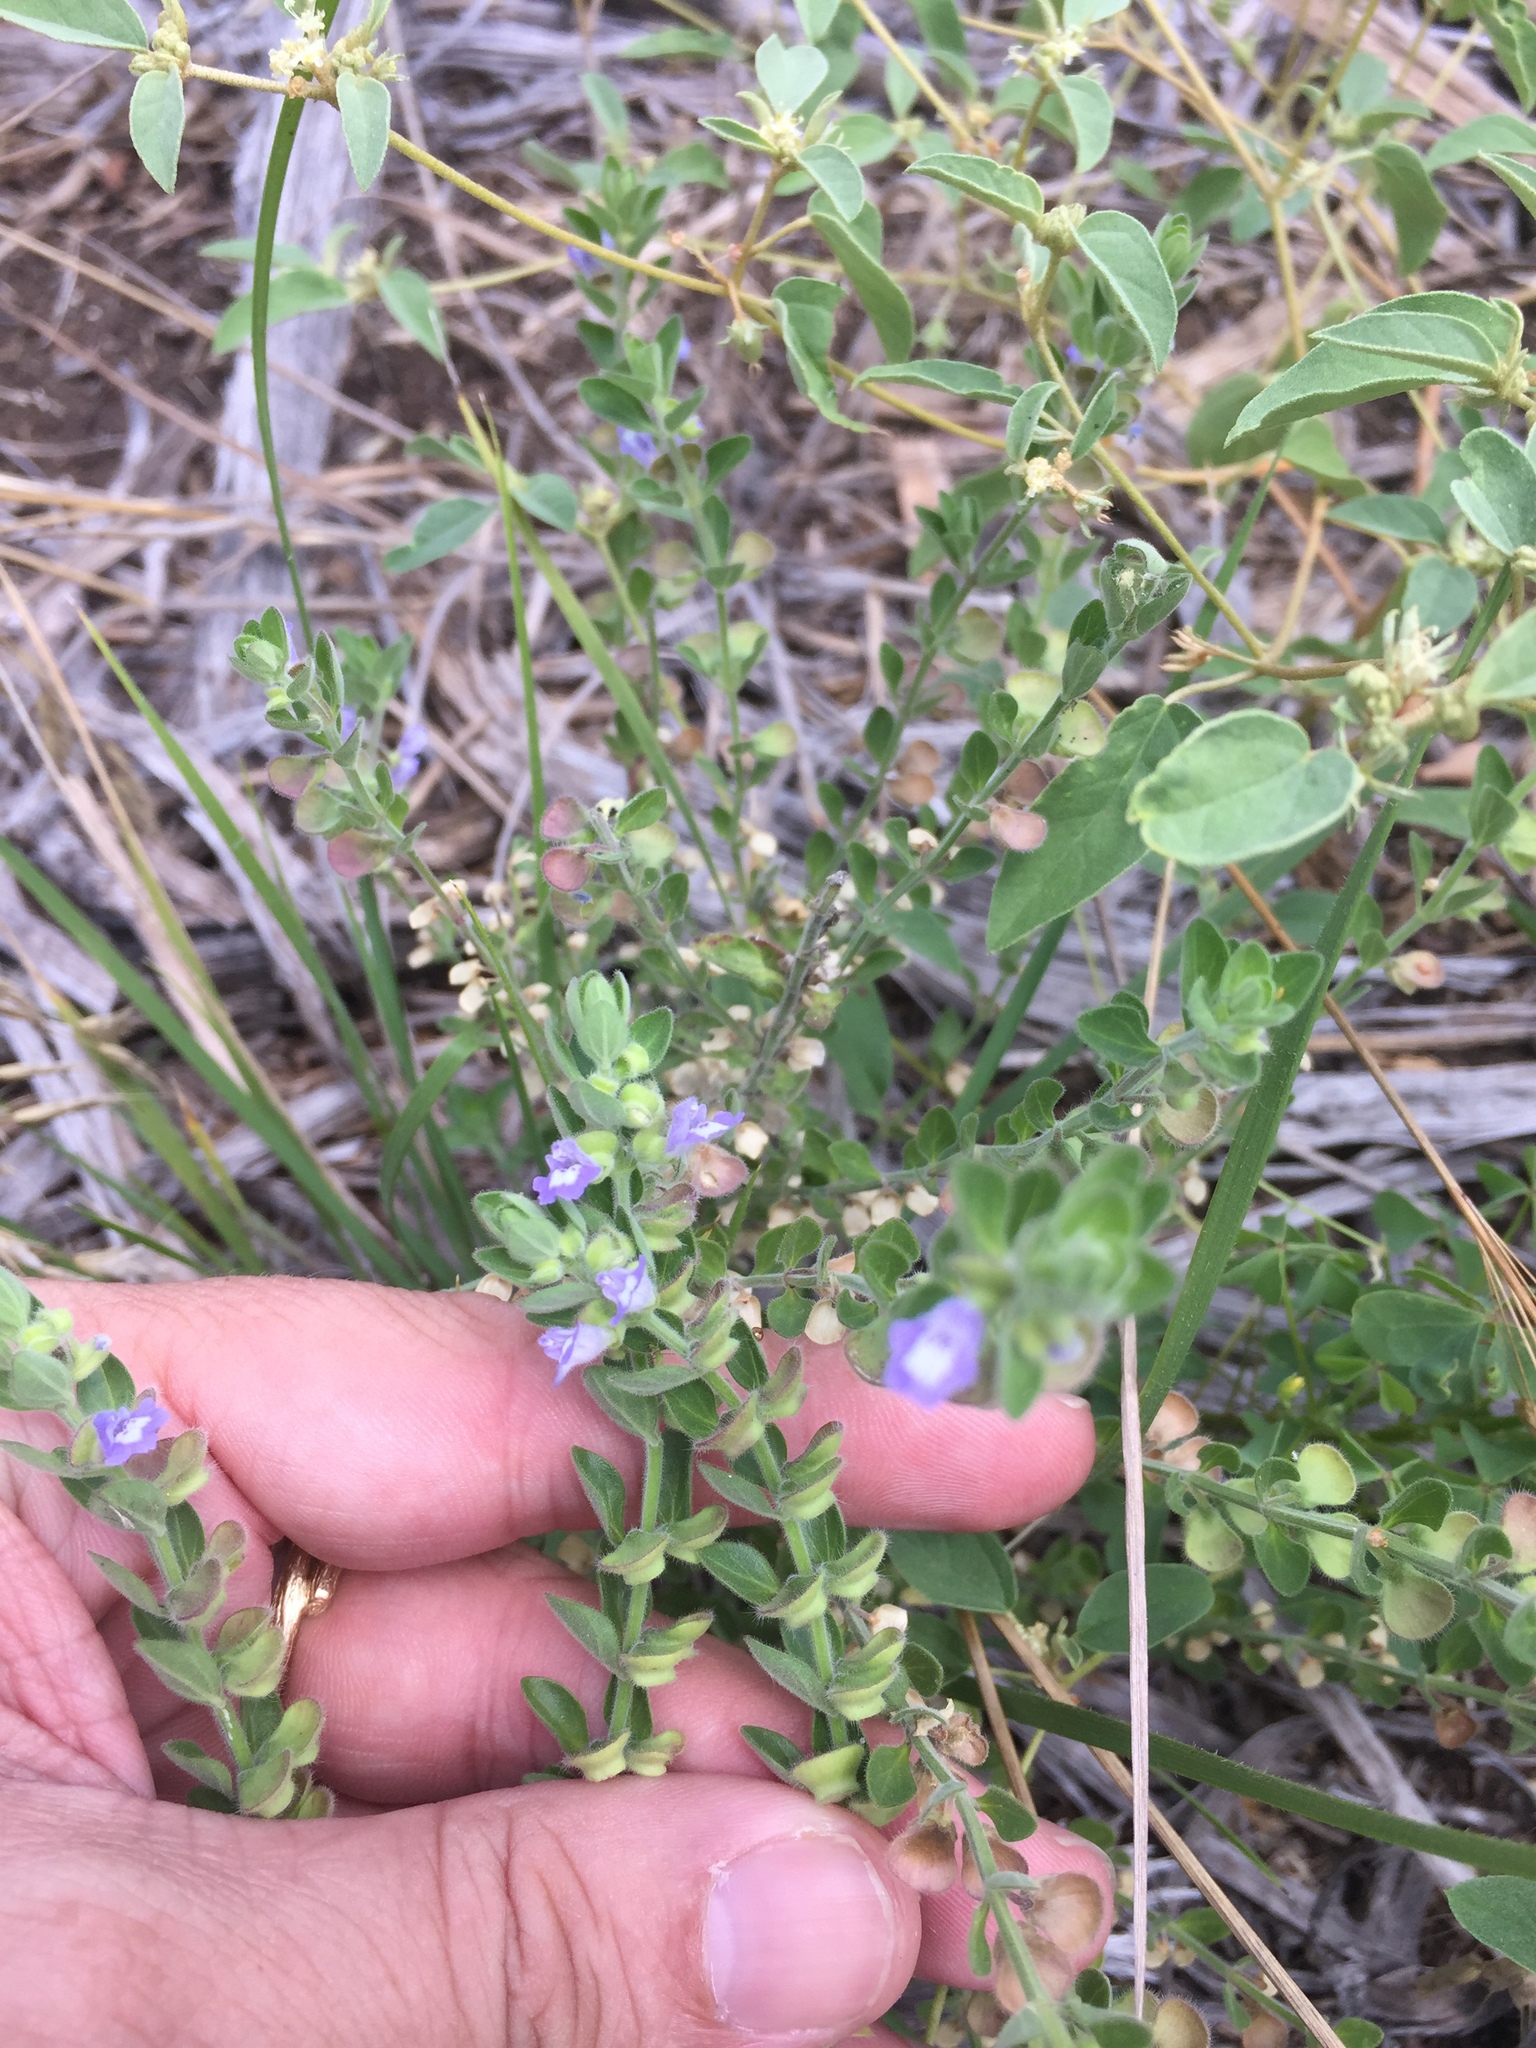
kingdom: Plantae
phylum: Tracheophyta
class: Magnoliopsida
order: Lamiales
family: Lamiaceae
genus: Scutellaria
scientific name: Scutellaria drummondii
